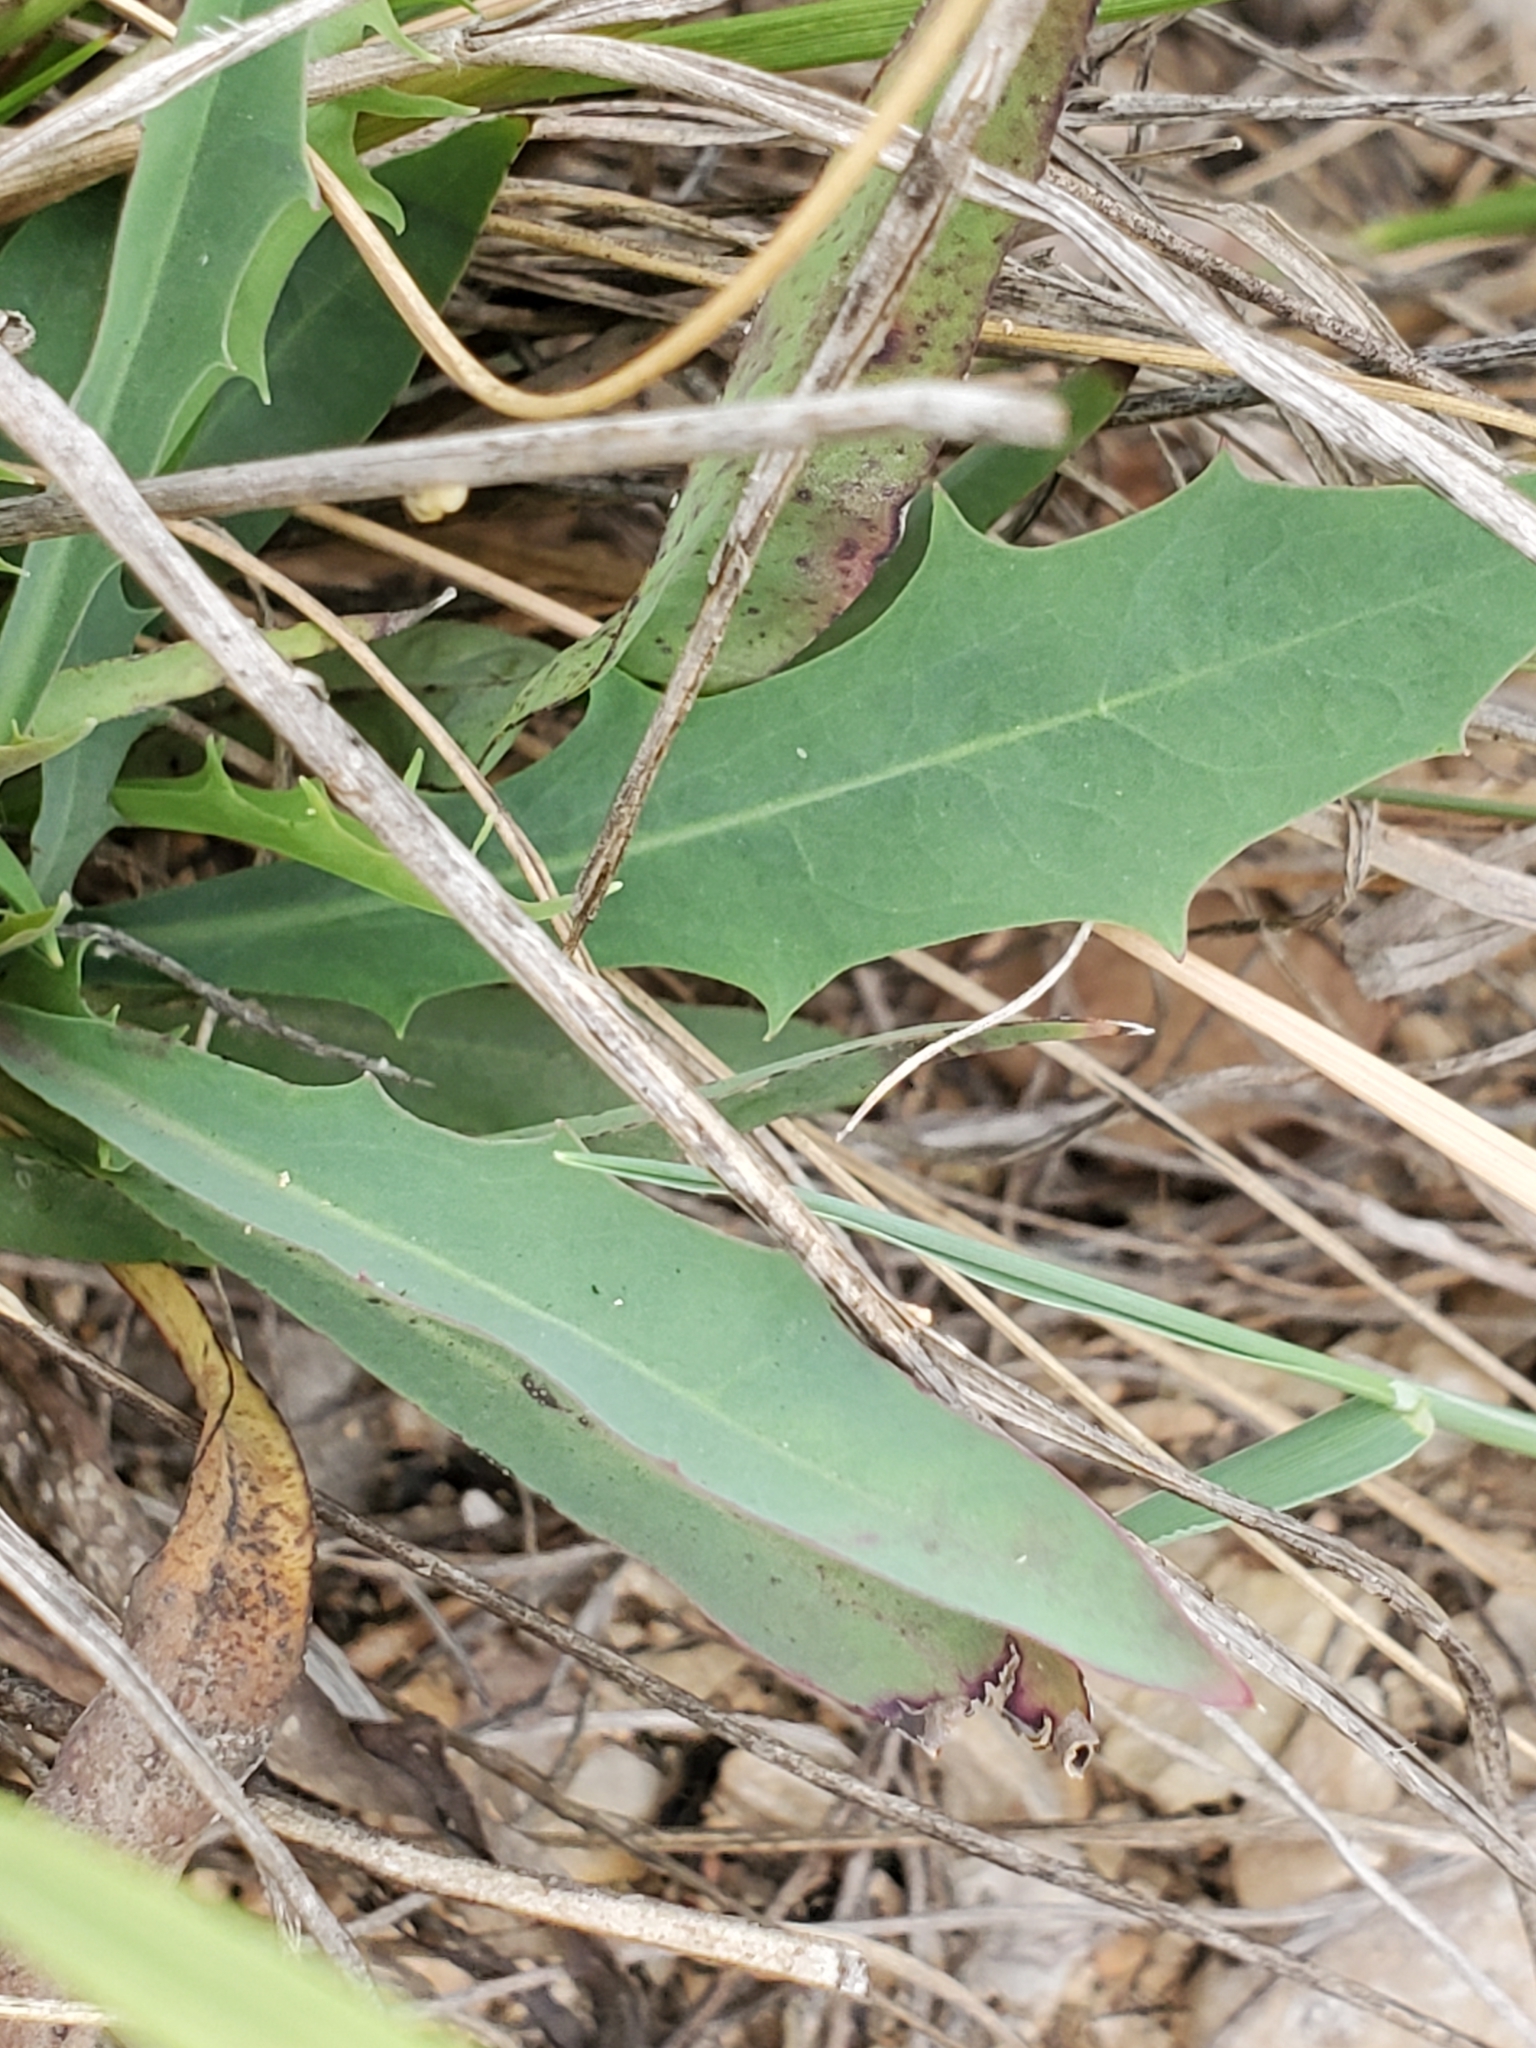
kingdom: Plantae
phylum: Tracheophyta
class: Magnoliopsida
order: Asterales
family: Asteraceae
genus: Pinaropappus
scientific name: Pinaropappus roseus
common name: Rock-lettuce
